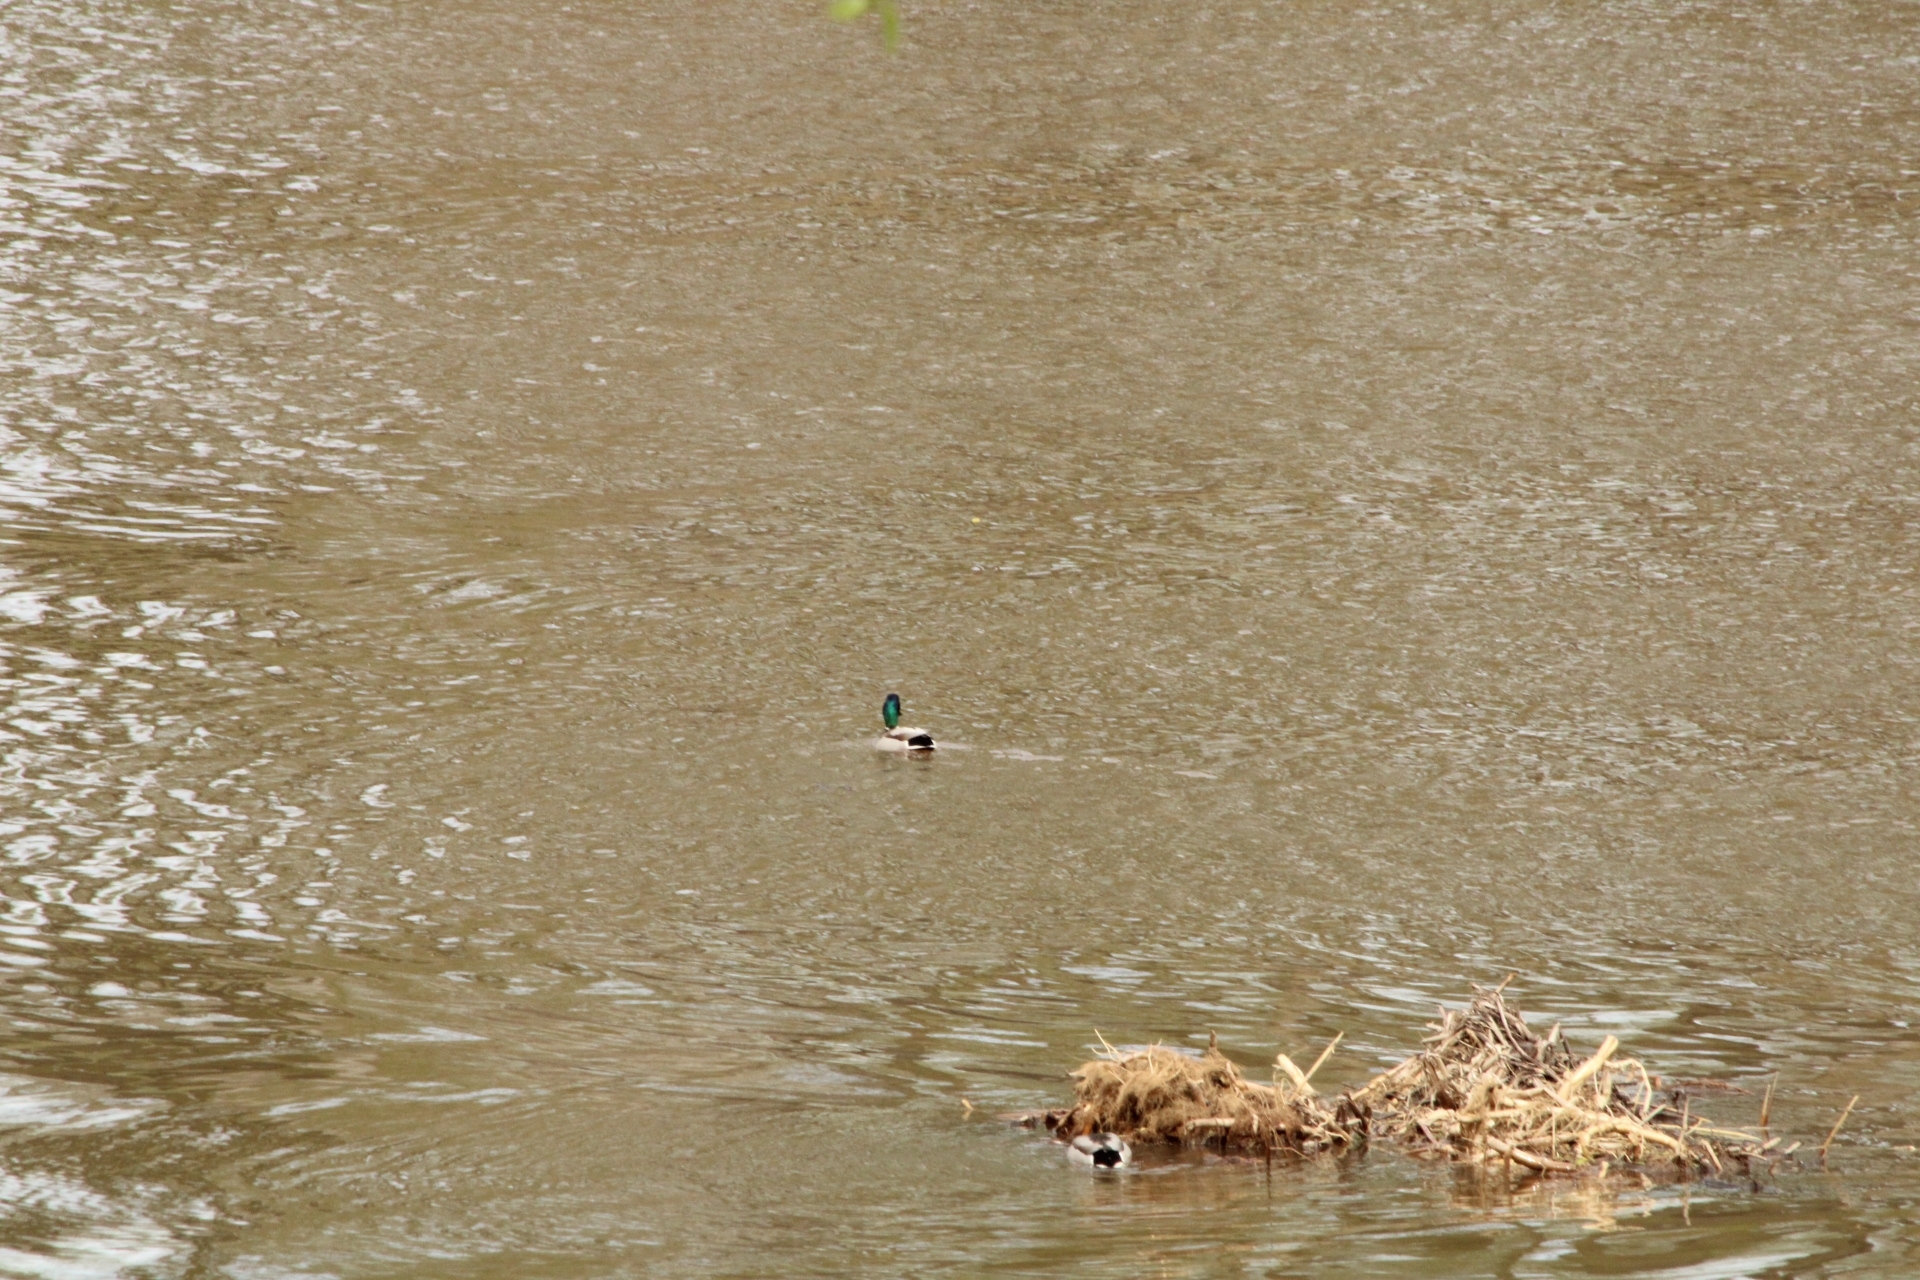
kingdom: Animalia
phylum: Chordata
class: Aves
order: Anseriformes
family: Anatidae
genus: Anas
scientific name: Anas platyrhynchos
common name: Mallard
